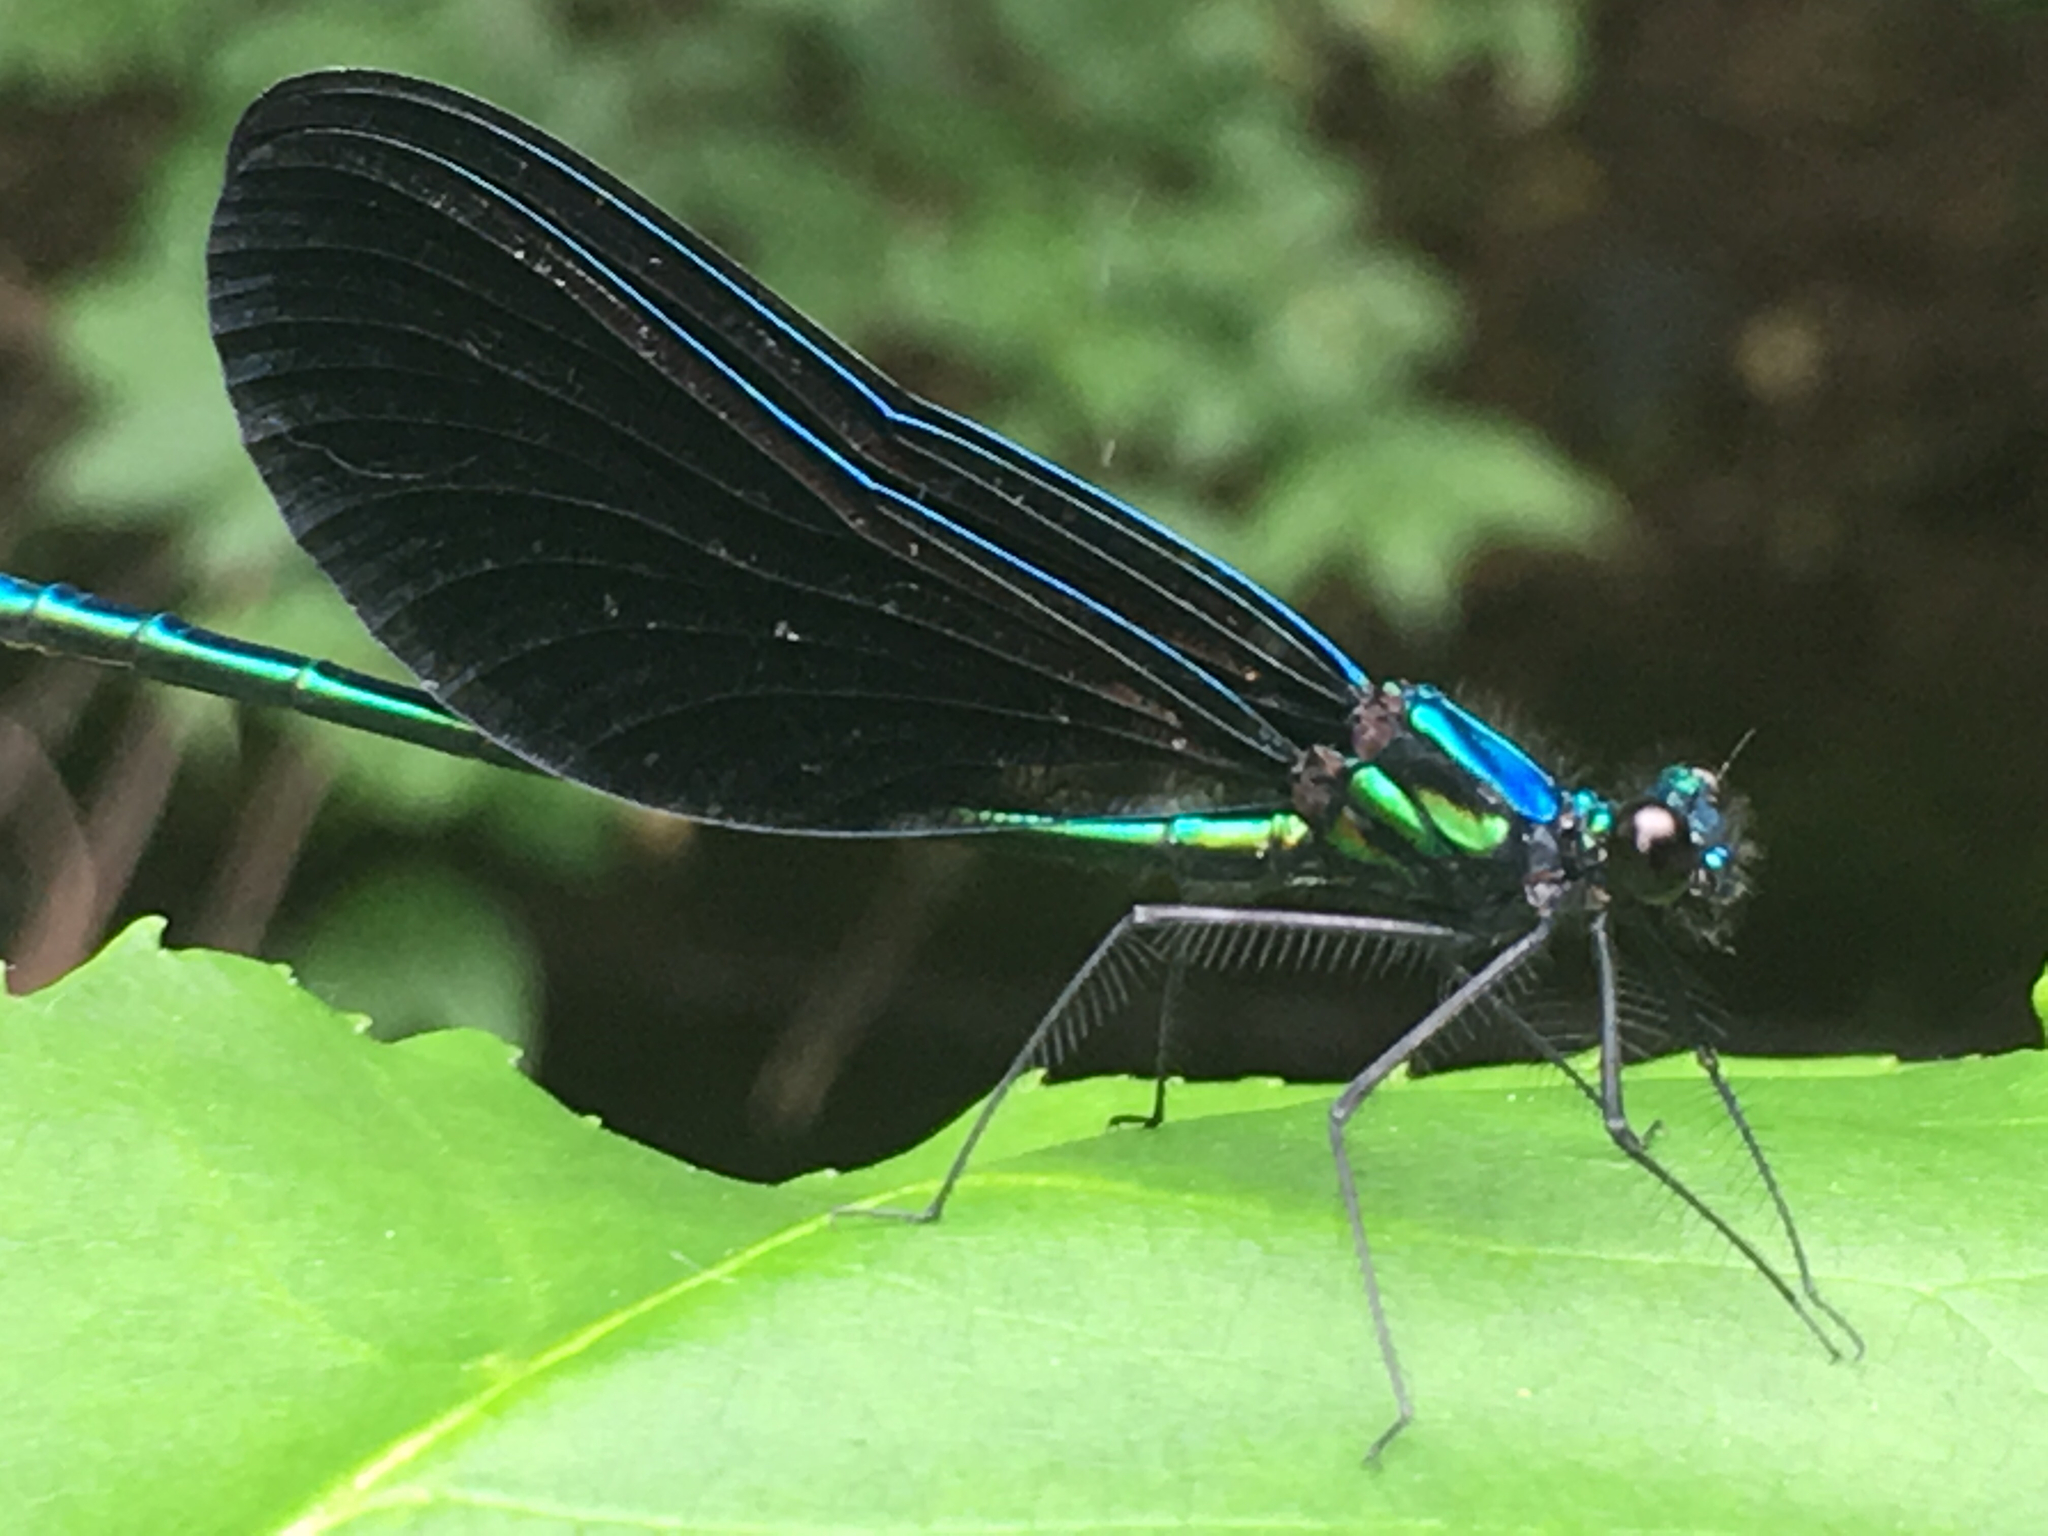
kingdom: Animalia
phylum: Arthropoda
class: Insecta
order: Odonata
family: Calopterygidae
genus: Calopteryx
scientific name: Calopteryx maculata
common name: Ebony jewelwing
